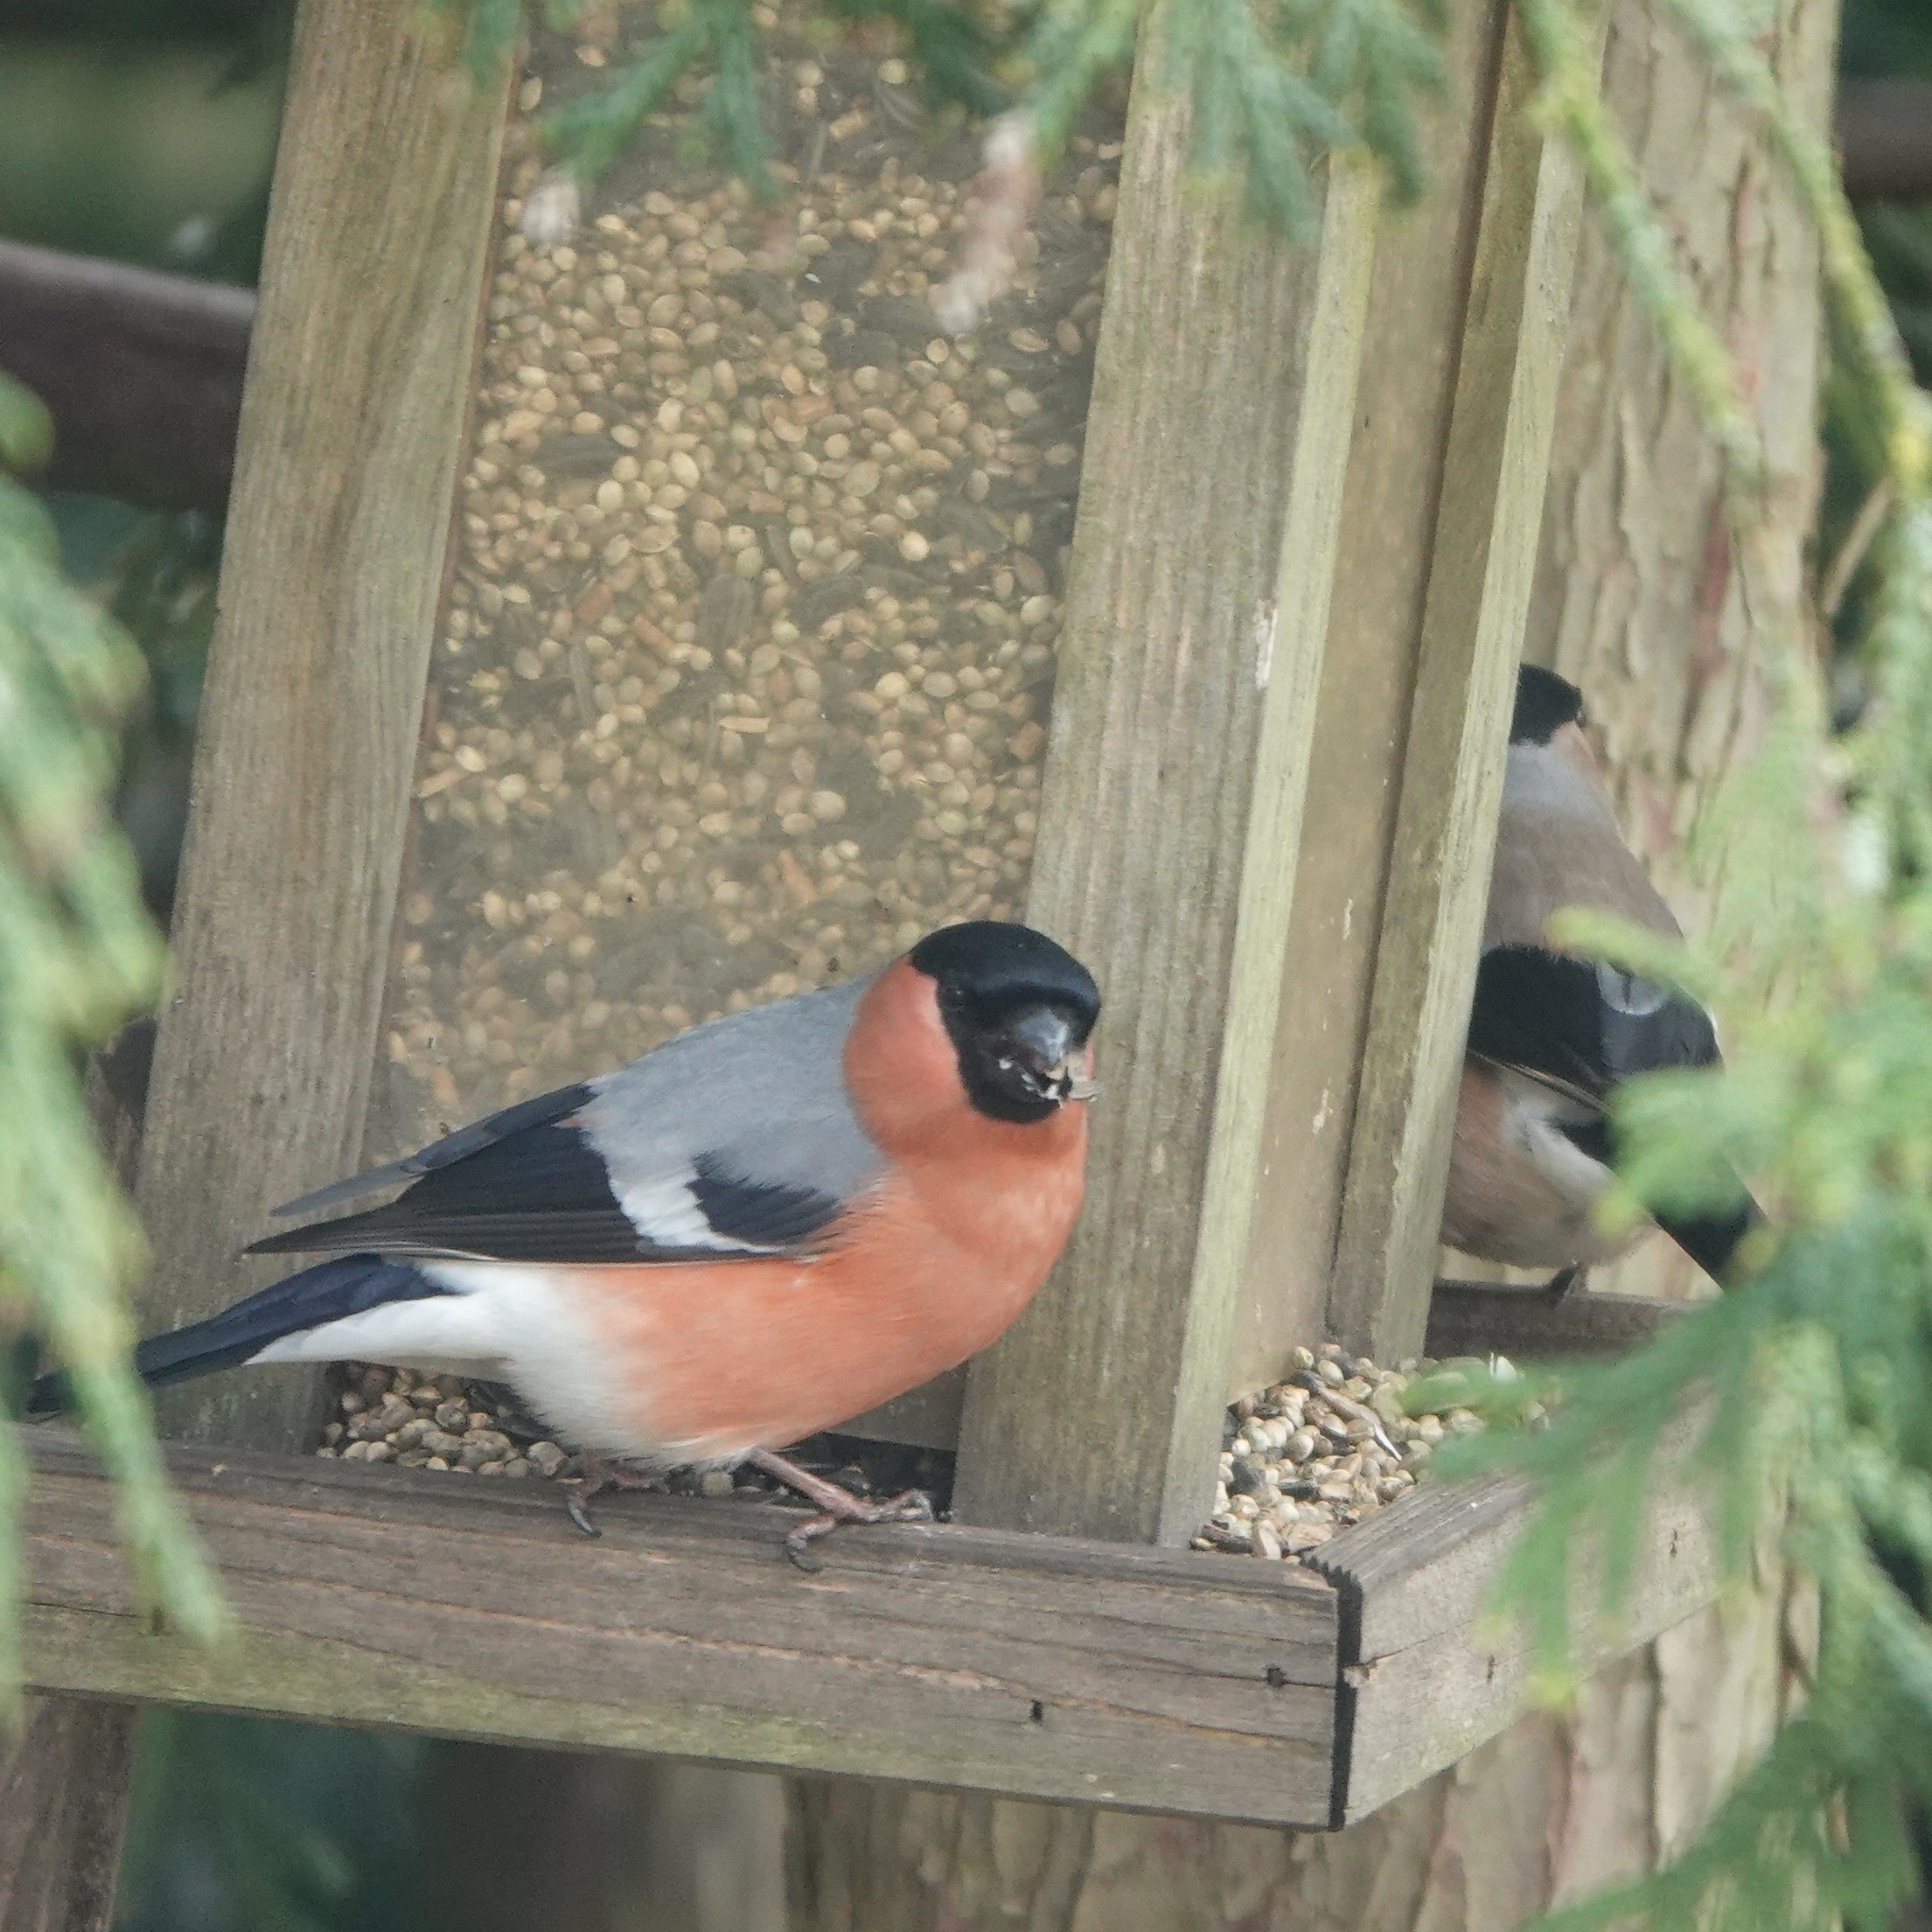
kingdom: Animalia
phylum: Chordata
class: Aves
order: Passeriformes
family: Fringillidae
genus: Pyrrhula
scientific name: Pyrrhula pyrrhula
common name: Eurasian bullfinch
